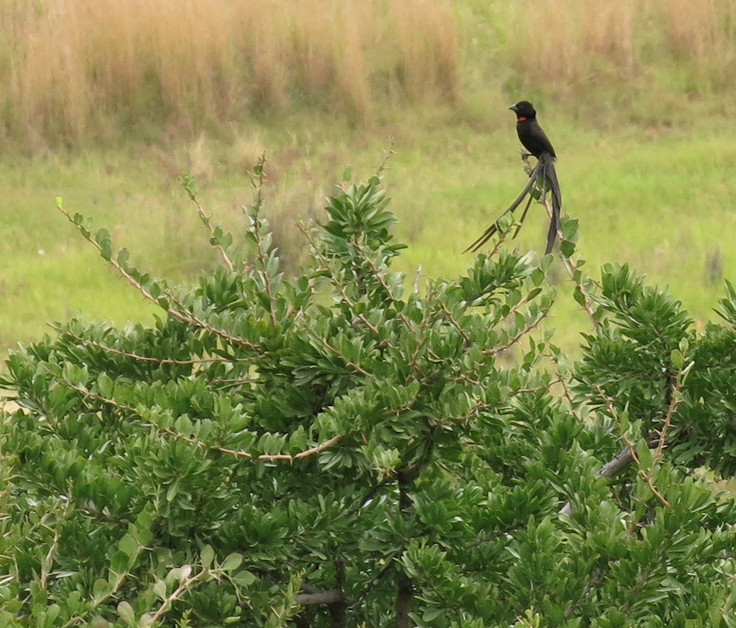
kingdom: Animalia
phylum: Chordata
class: Aves
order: Passeriformes
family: Ploceidae
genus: Euplectes
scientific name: Euplectes ardens
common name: Red-collared widowbird
